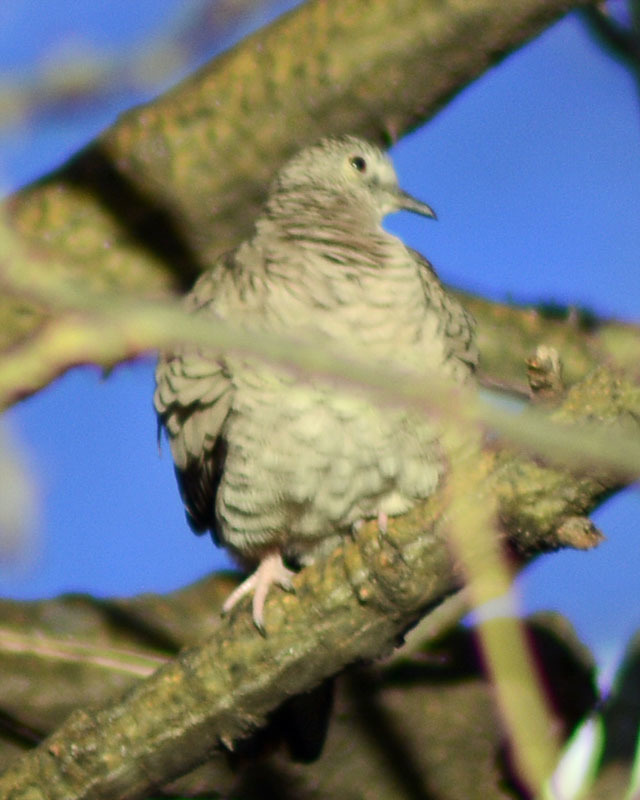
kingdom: Animalia
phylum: Chordata
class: Aves
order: Columbiformes
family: Columbidae
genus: Columbina
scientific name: Columbina inca
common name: Inca dove
